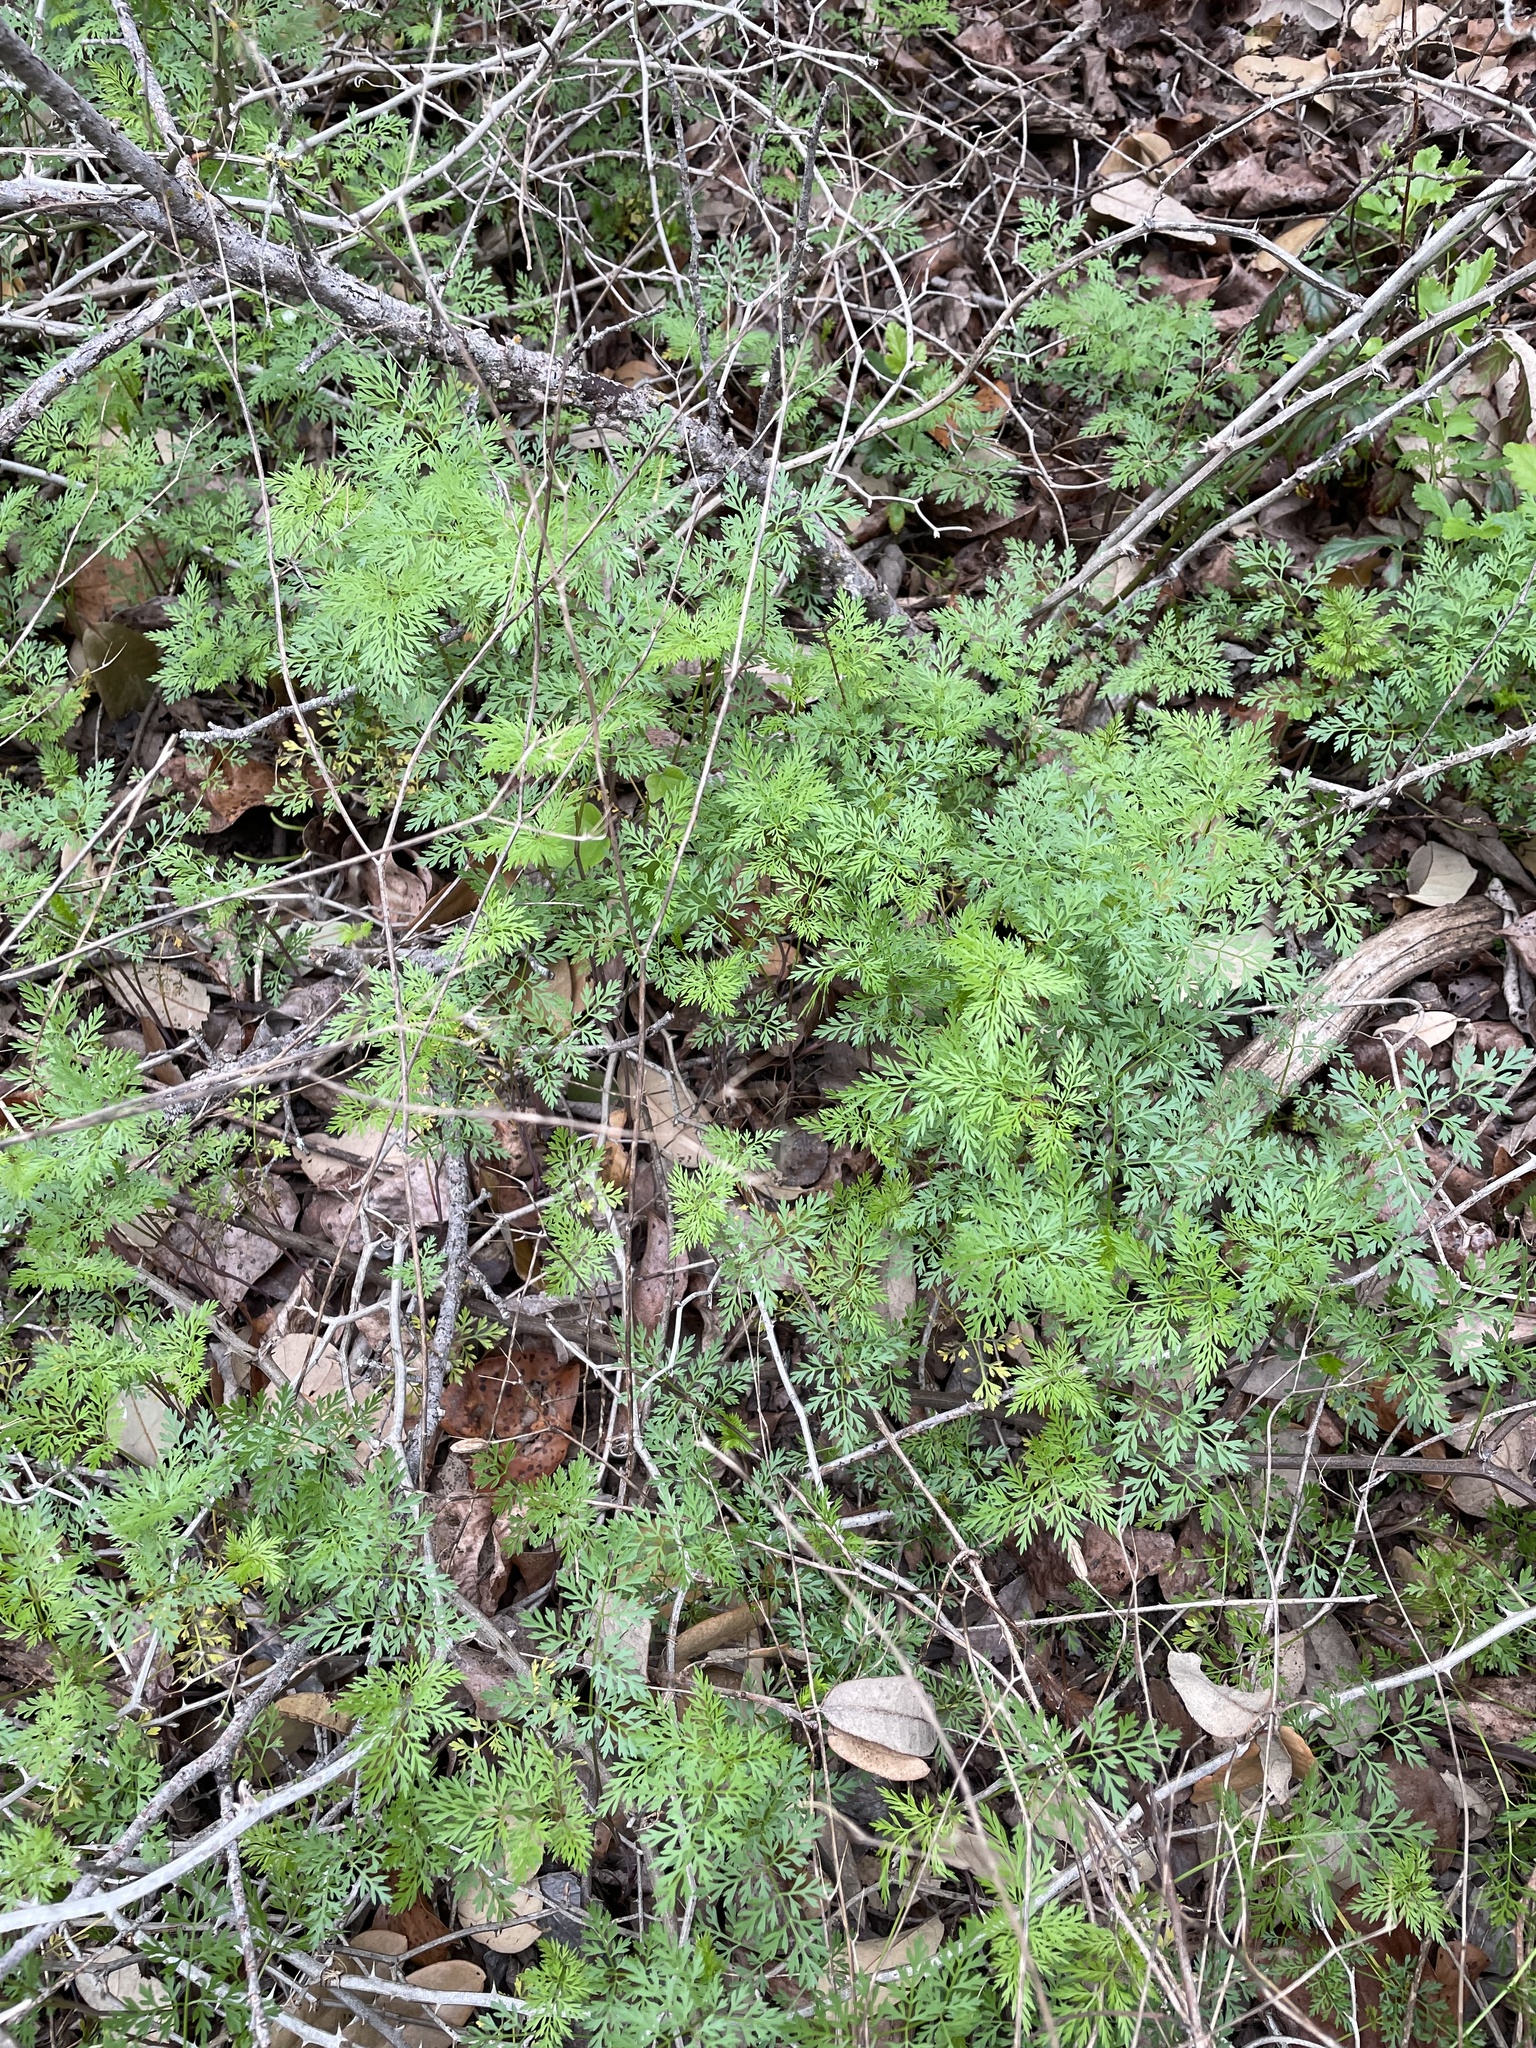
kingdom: Plantae
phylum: Tracheophyta
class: Magnoliopsida
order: Apiales
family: Apiaceae
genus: Trepocarpus
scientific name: Trepocarpus aethusae
